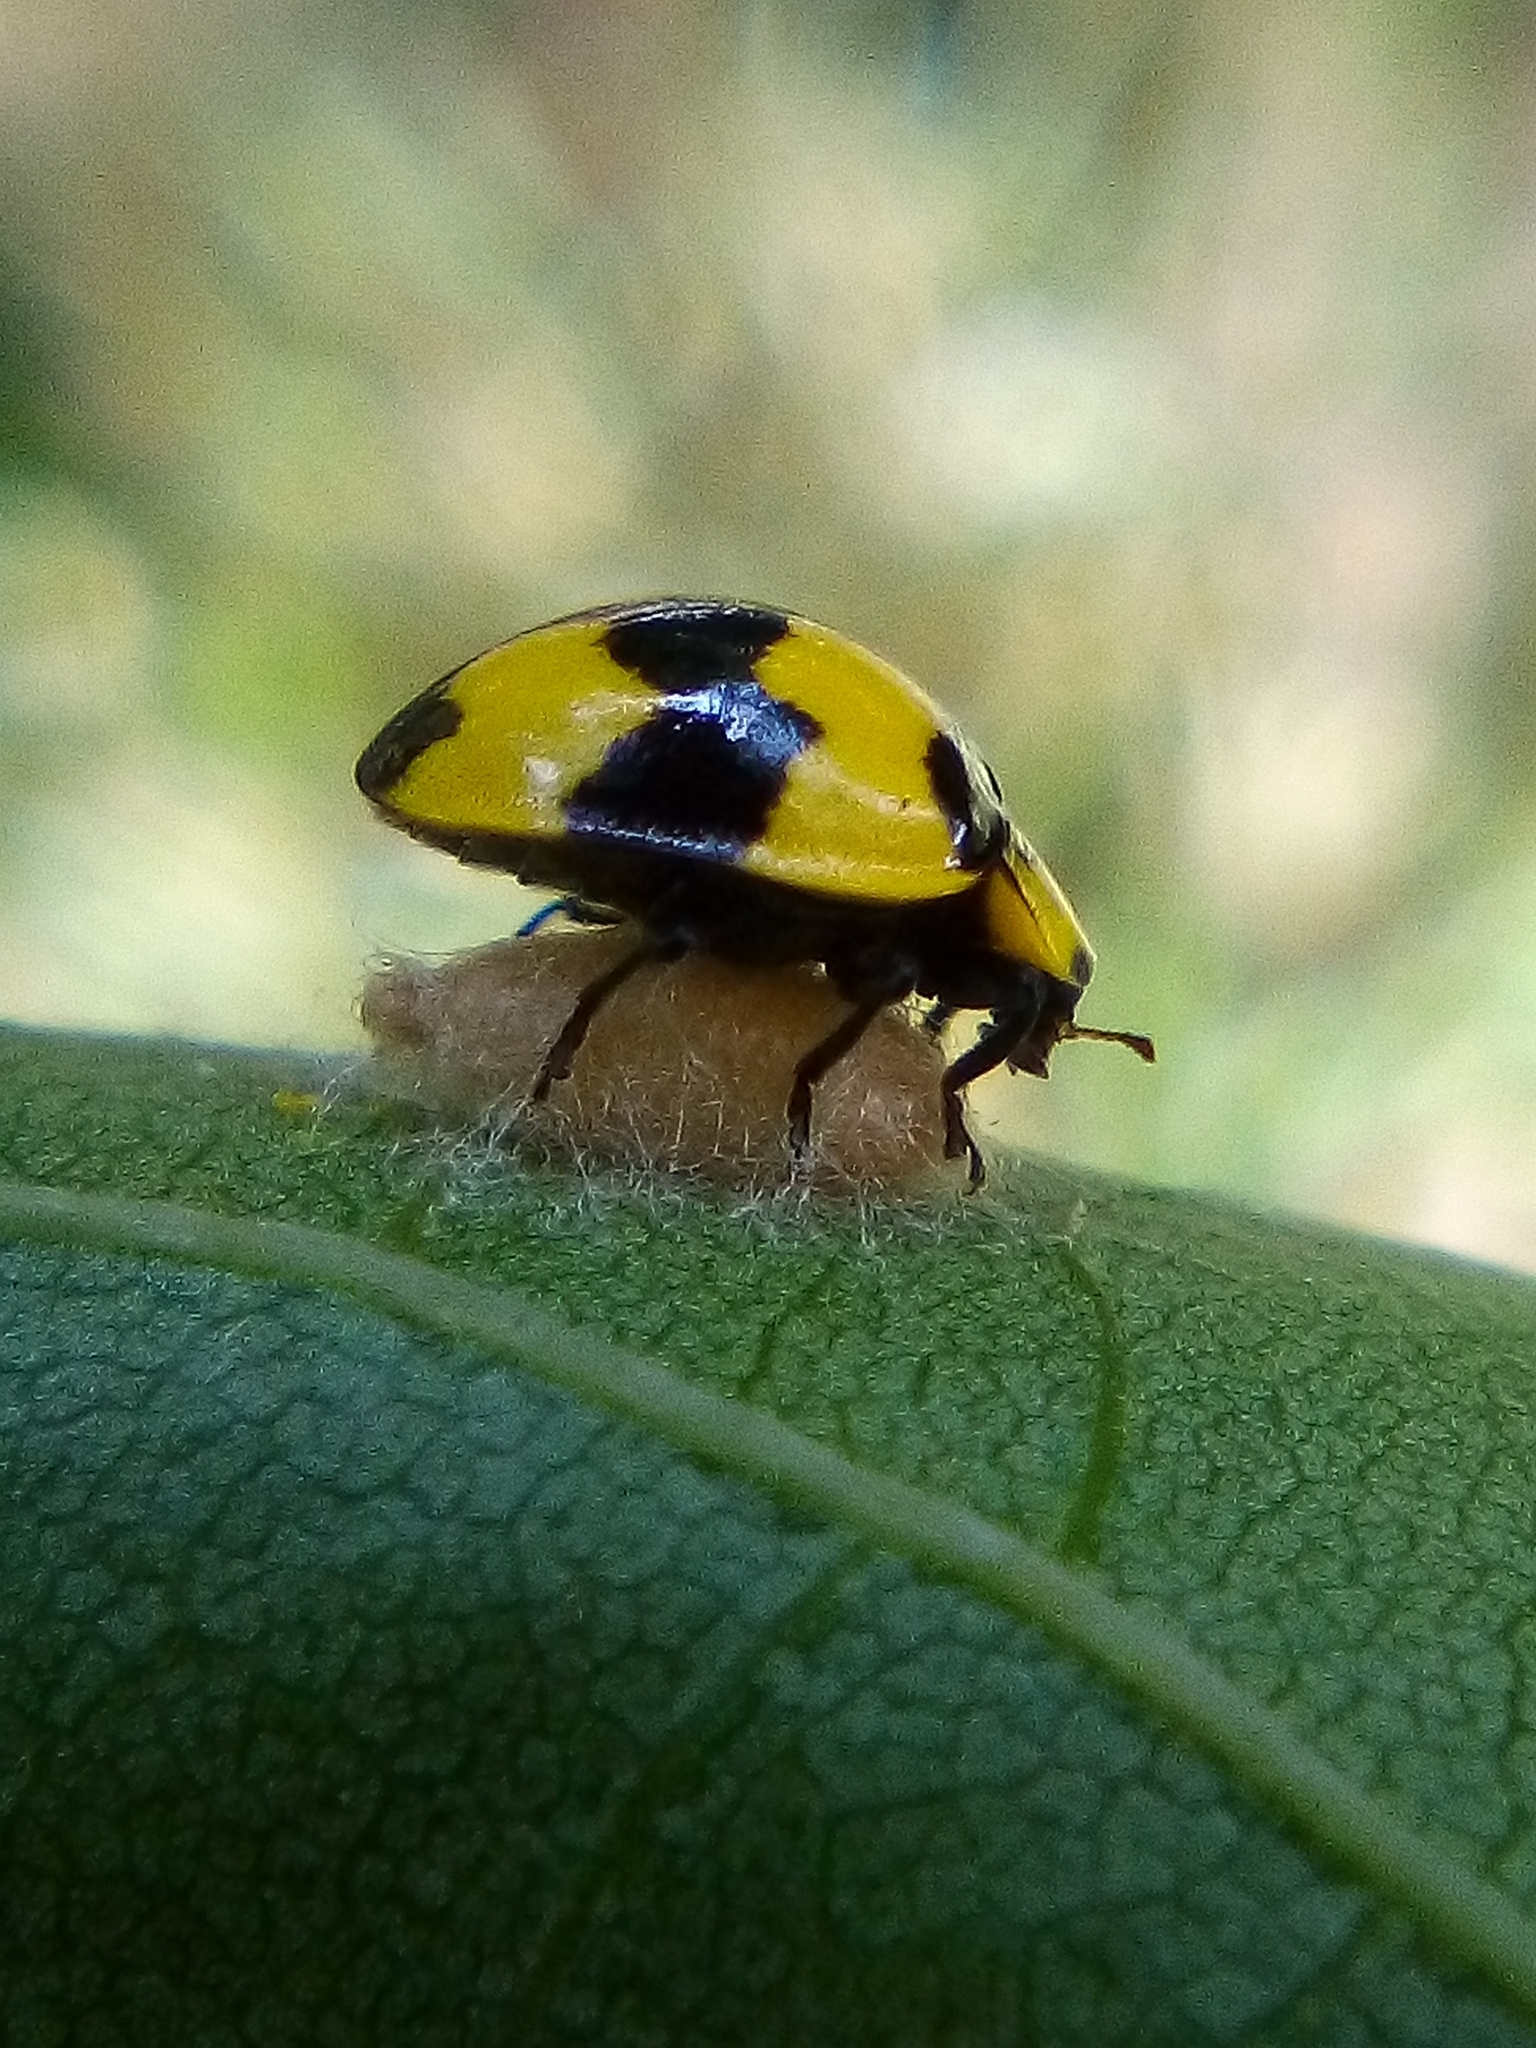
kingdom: Animalia
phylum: Arthropoda
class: Insecta
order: Coleoptera
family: Coccinellidae
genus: Illeis
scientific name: Illeis galbula
